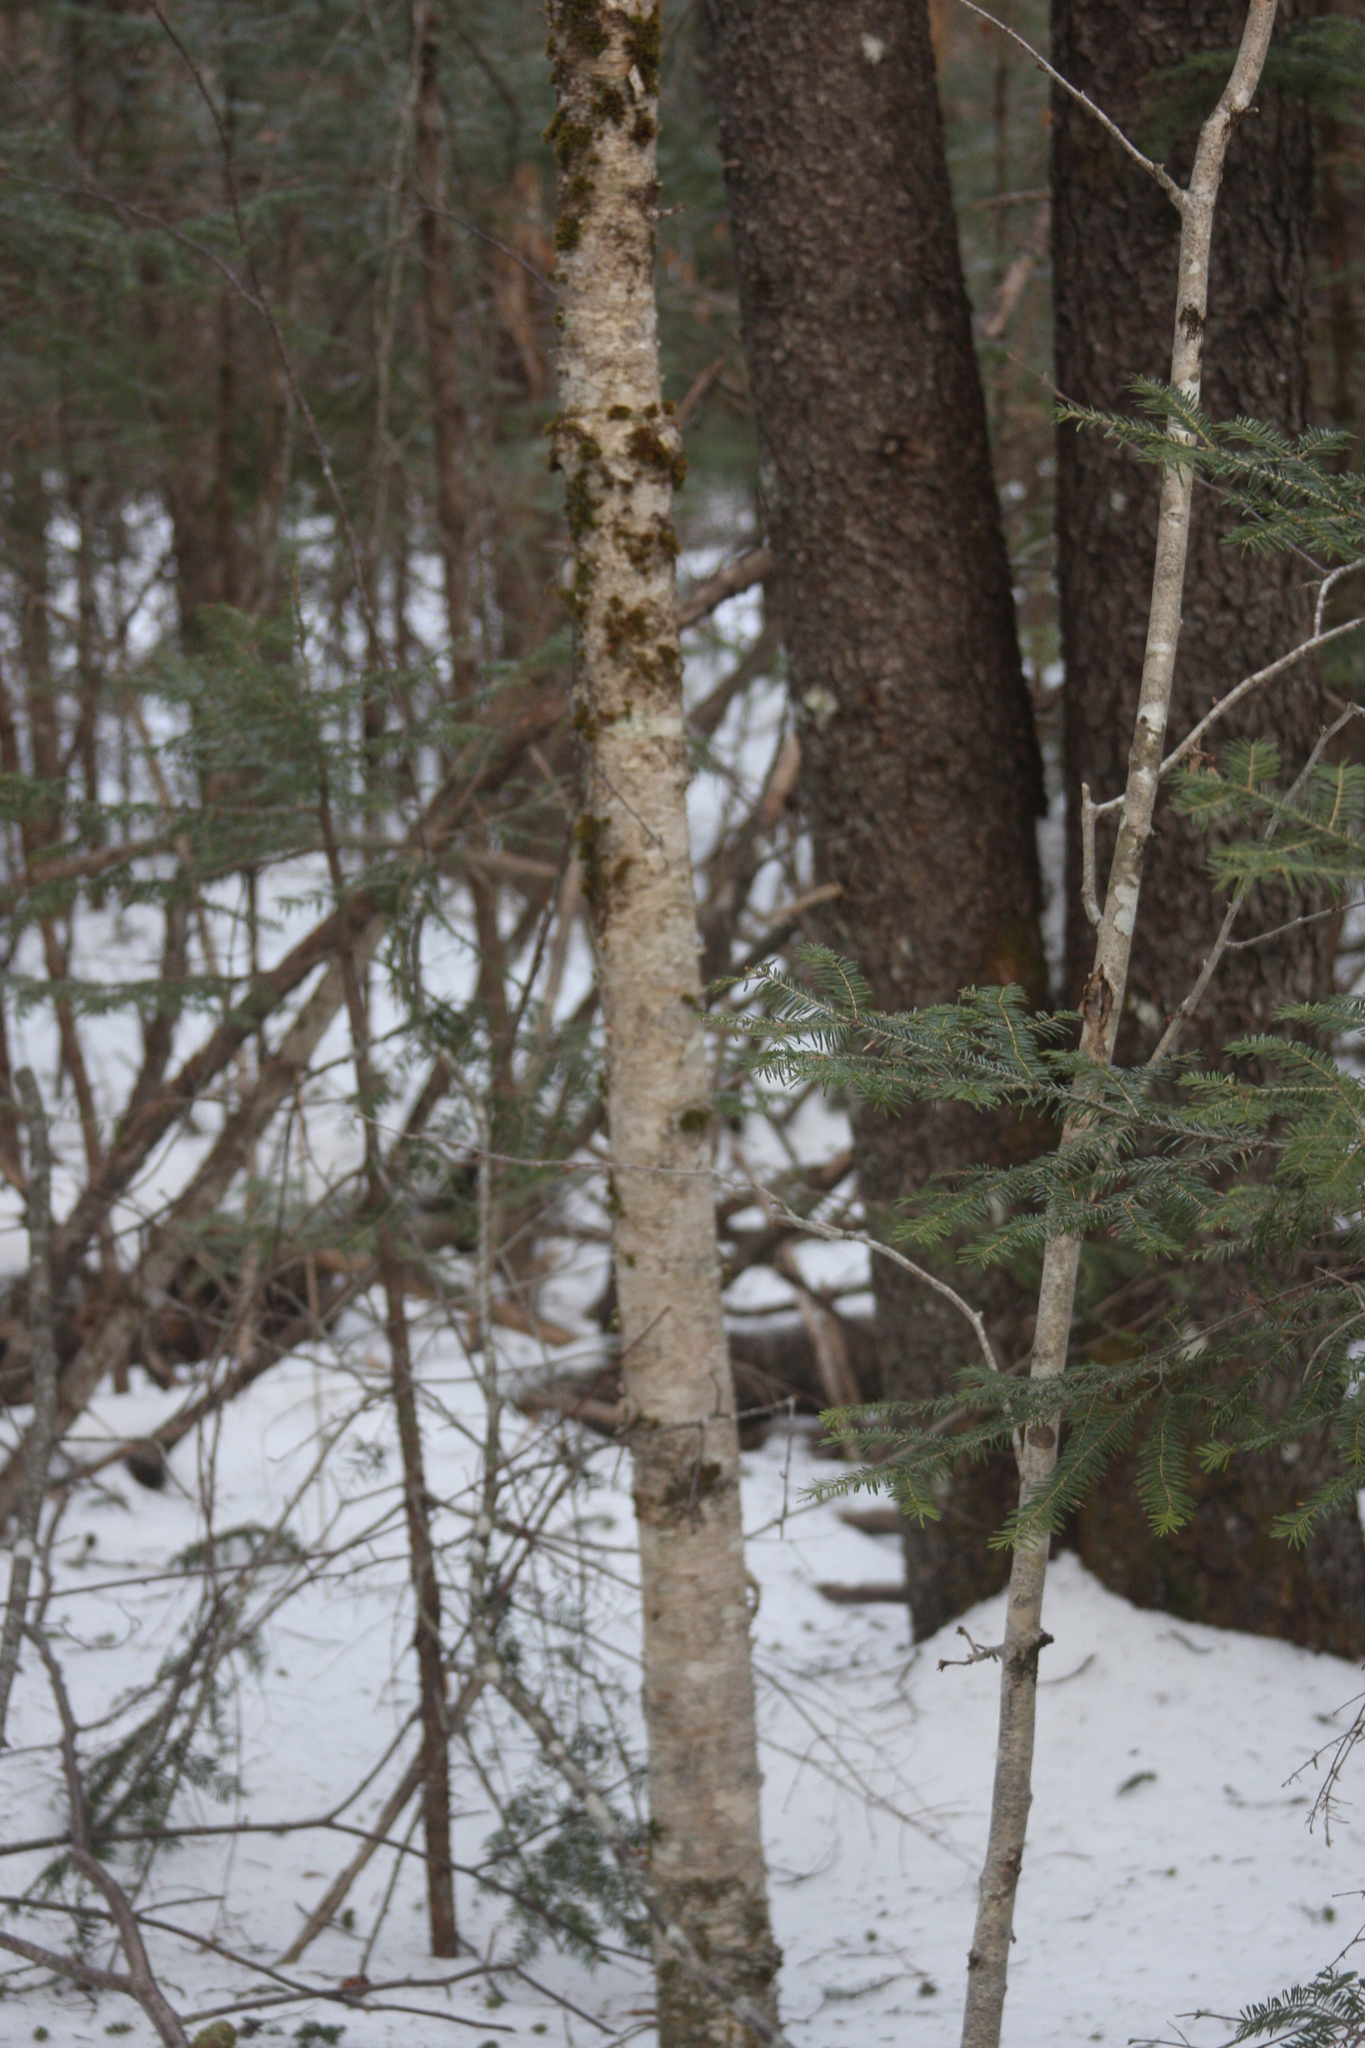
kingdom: Plantae
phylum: Tracheophyta
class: Magnoliopsida
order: Fagales
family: Betulaceae
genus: Betula
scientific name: Betula alleghaniensis
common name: Yellow birch
